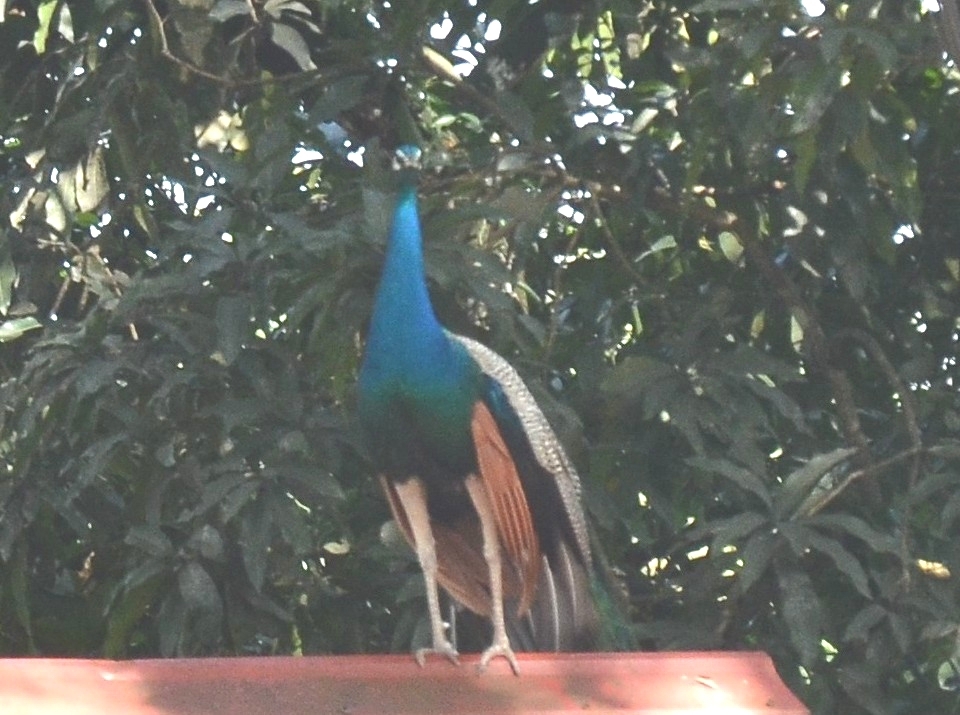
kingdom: Animalia
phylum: Chordata
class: Aves
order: Galliformes
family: Phasianidae
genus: Pavo
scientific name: Pavo cristatus
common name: Indian peafowl
